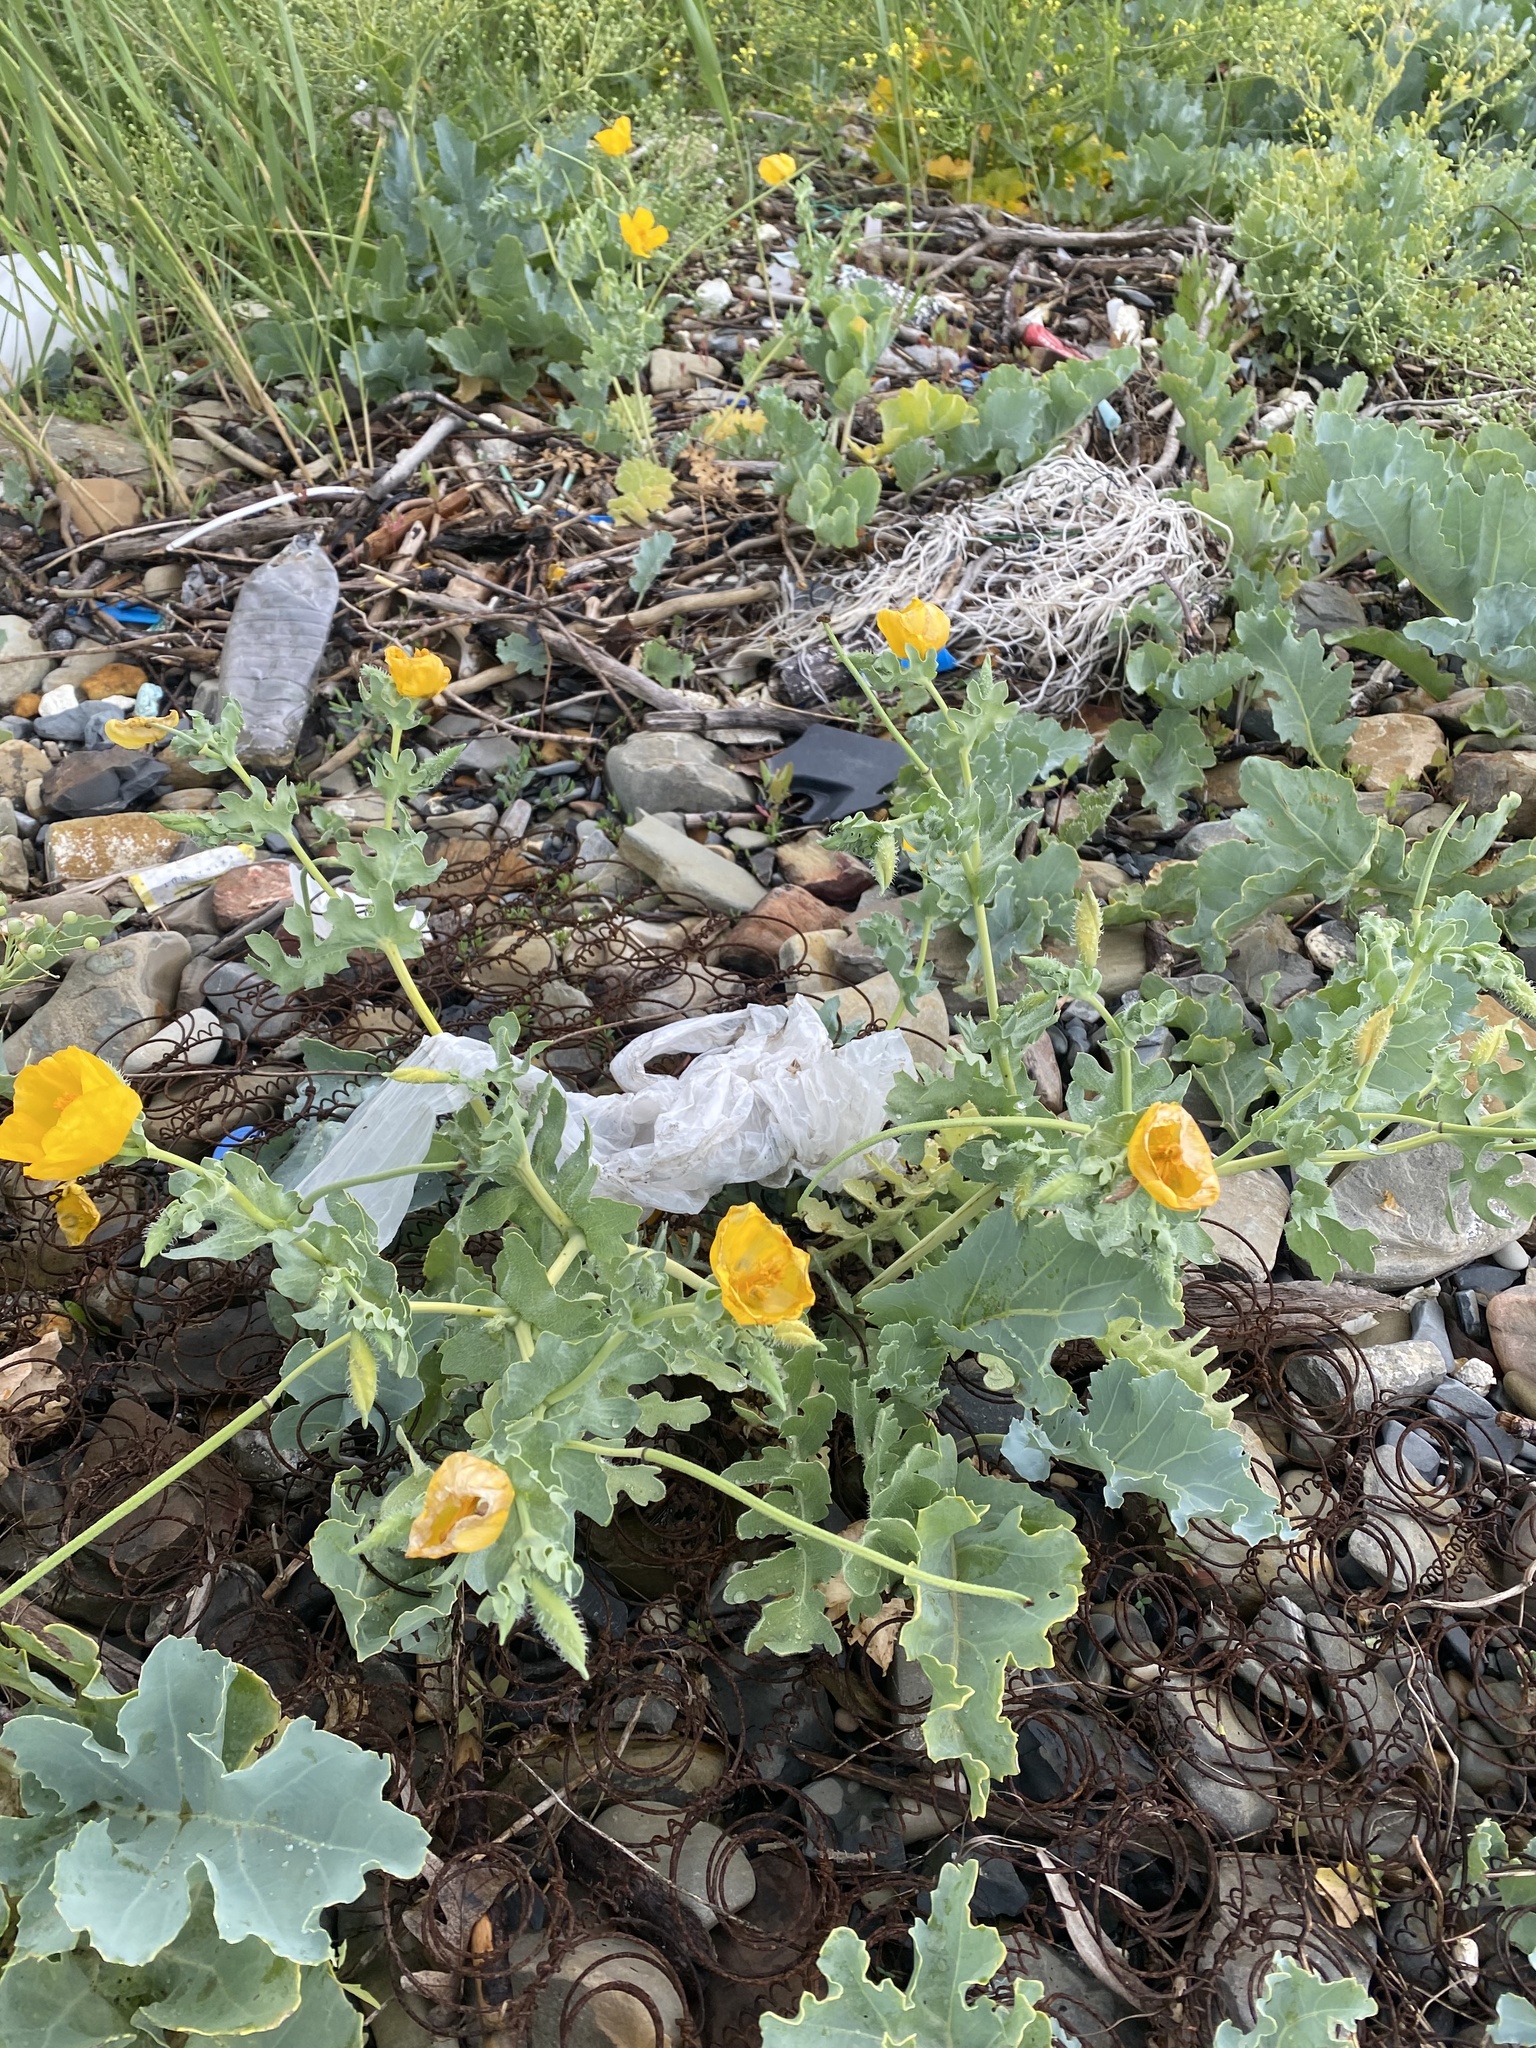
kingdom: Plantae
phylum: Tracheophyta
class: Magnoliopsida
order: Ranunculales
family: Papaveraceae
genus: Glaucium
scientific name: Glaucium flavum
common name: Yellow horned-poppy
